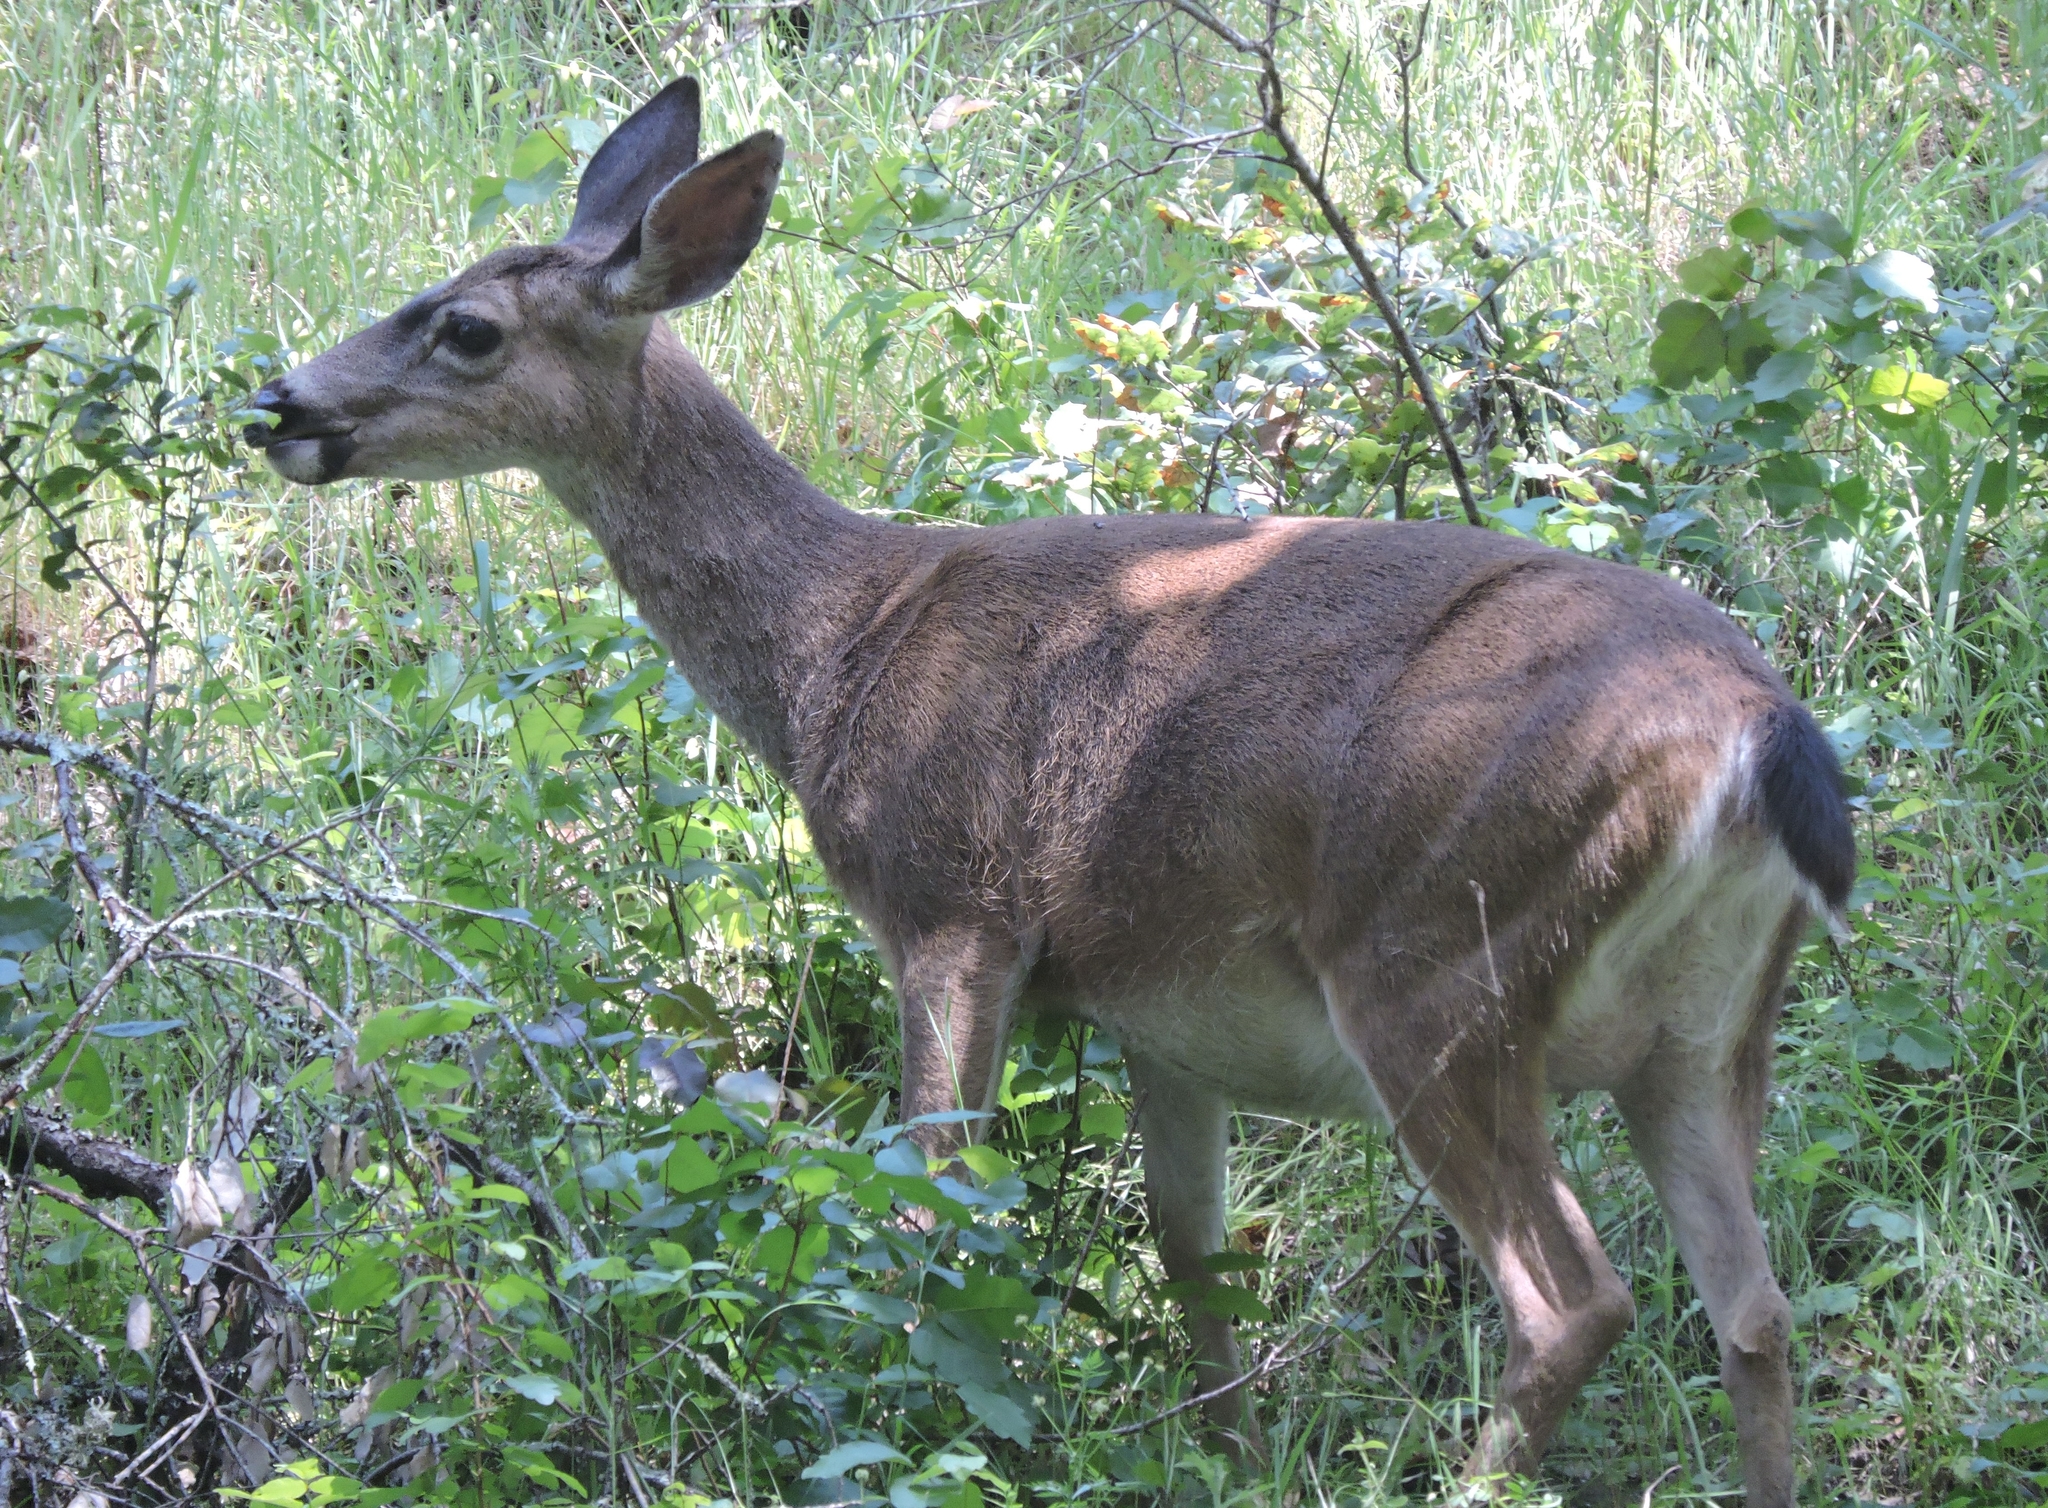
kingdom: Animalia
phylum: Chordata
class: Mammalia
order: Artiodactyla
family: Cervidae
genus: Odocoileus
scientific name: Odocoileus hemionus
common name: Mule deer
